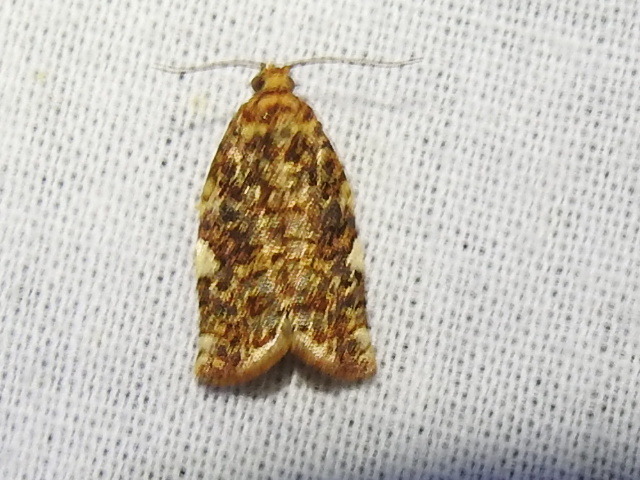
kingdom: Animalia
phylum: Arthropoda
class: Insecta
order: Lepidoptera
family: Tortricidae
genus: Archips
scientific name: Archips argyrospila
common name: Fruit-tree leafroller moth
